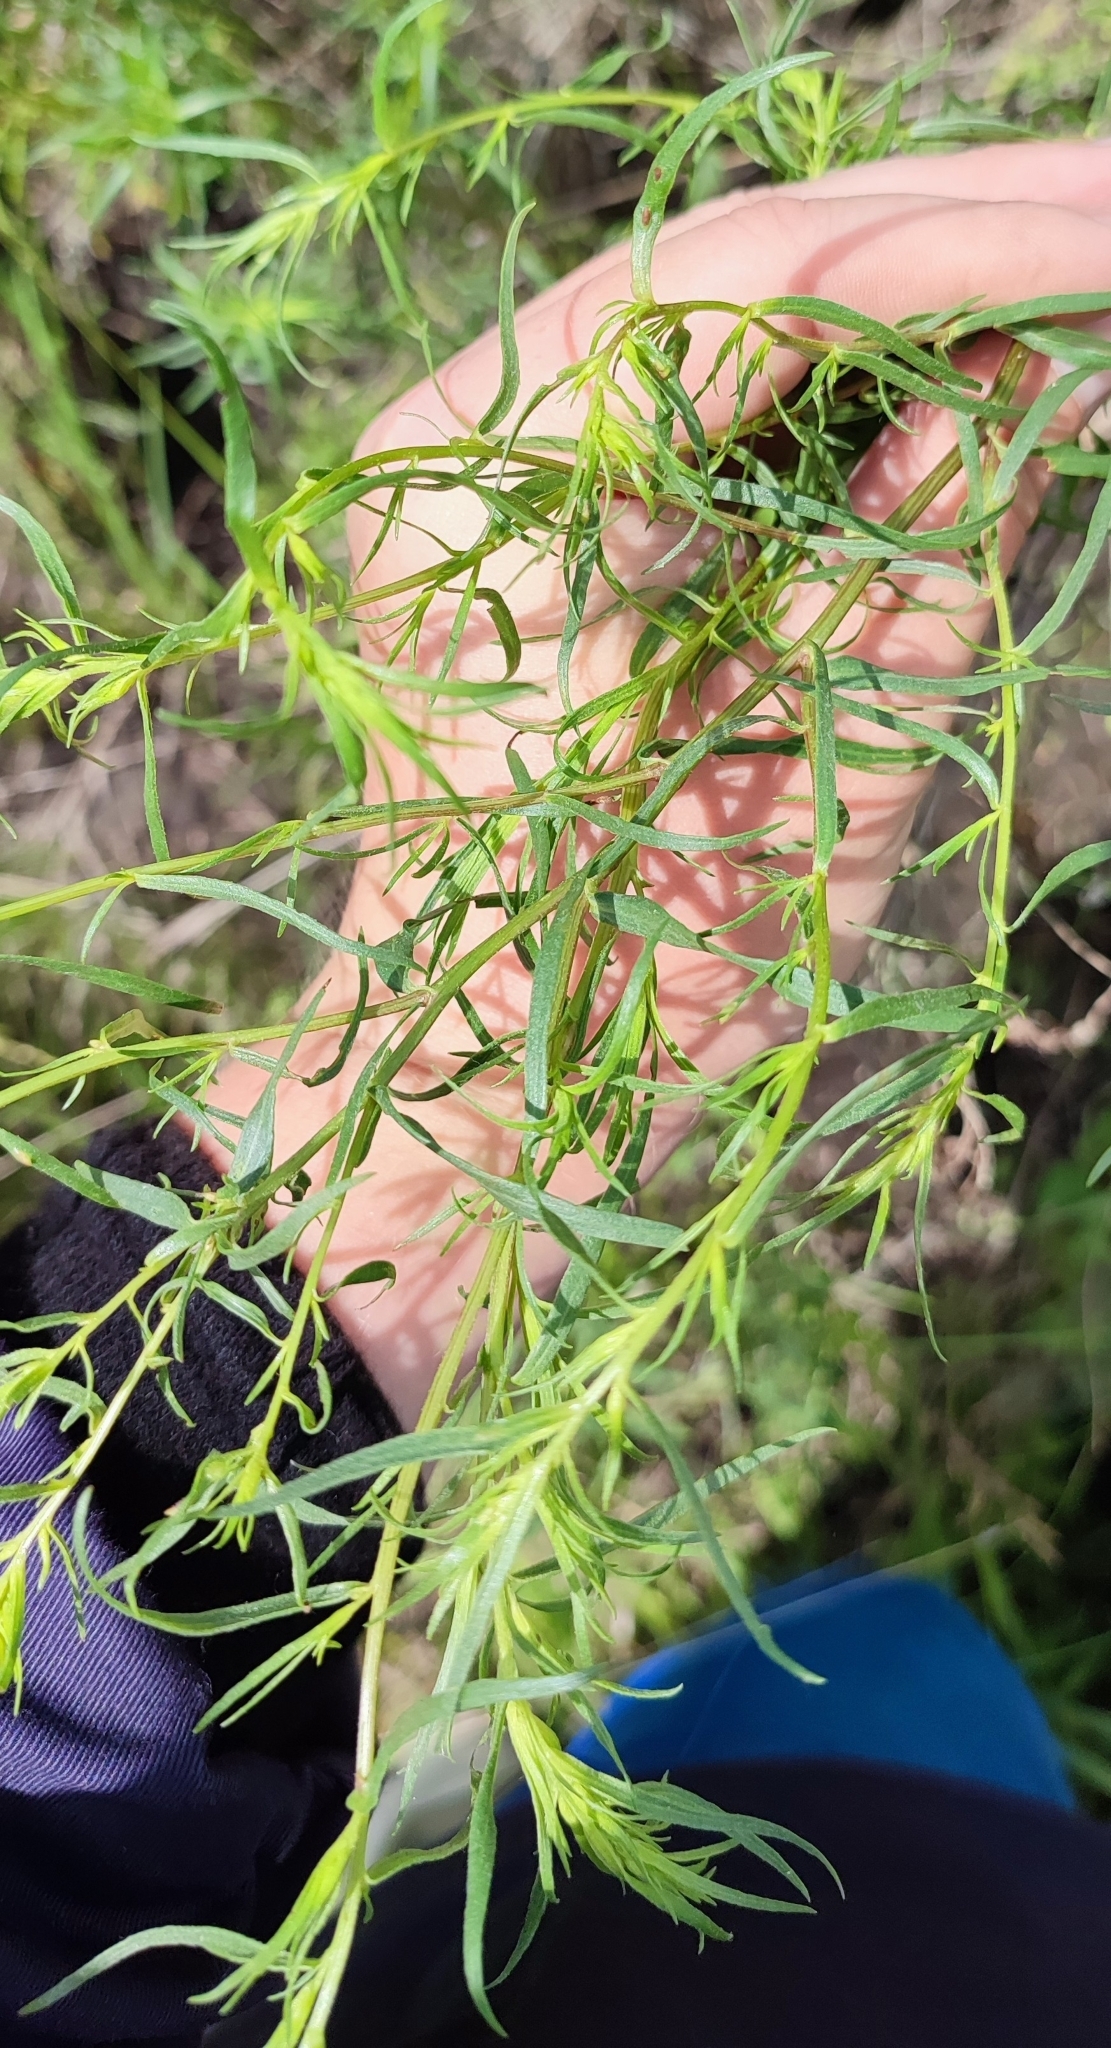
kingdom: Plantae
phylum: Tracheophyta
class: Magnoliopsida
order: Asterales
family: Asteraceae
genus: Artemisia
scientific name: Artemisia dracunculus
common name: Tarragon
